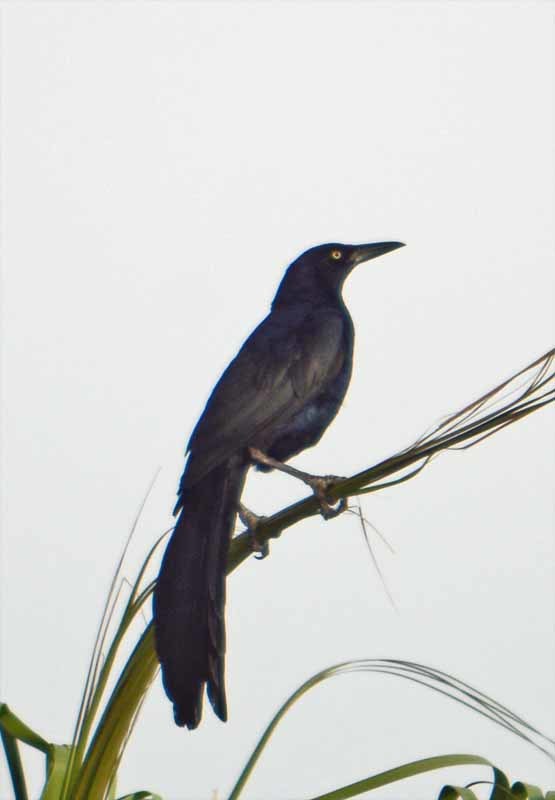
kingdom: Animalia
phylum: Chordata
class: Aves
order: Passeriformes
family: Icteridae
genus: Quiscalus
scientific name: Quiscalus mexicanus
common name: Great-tailed grackle
